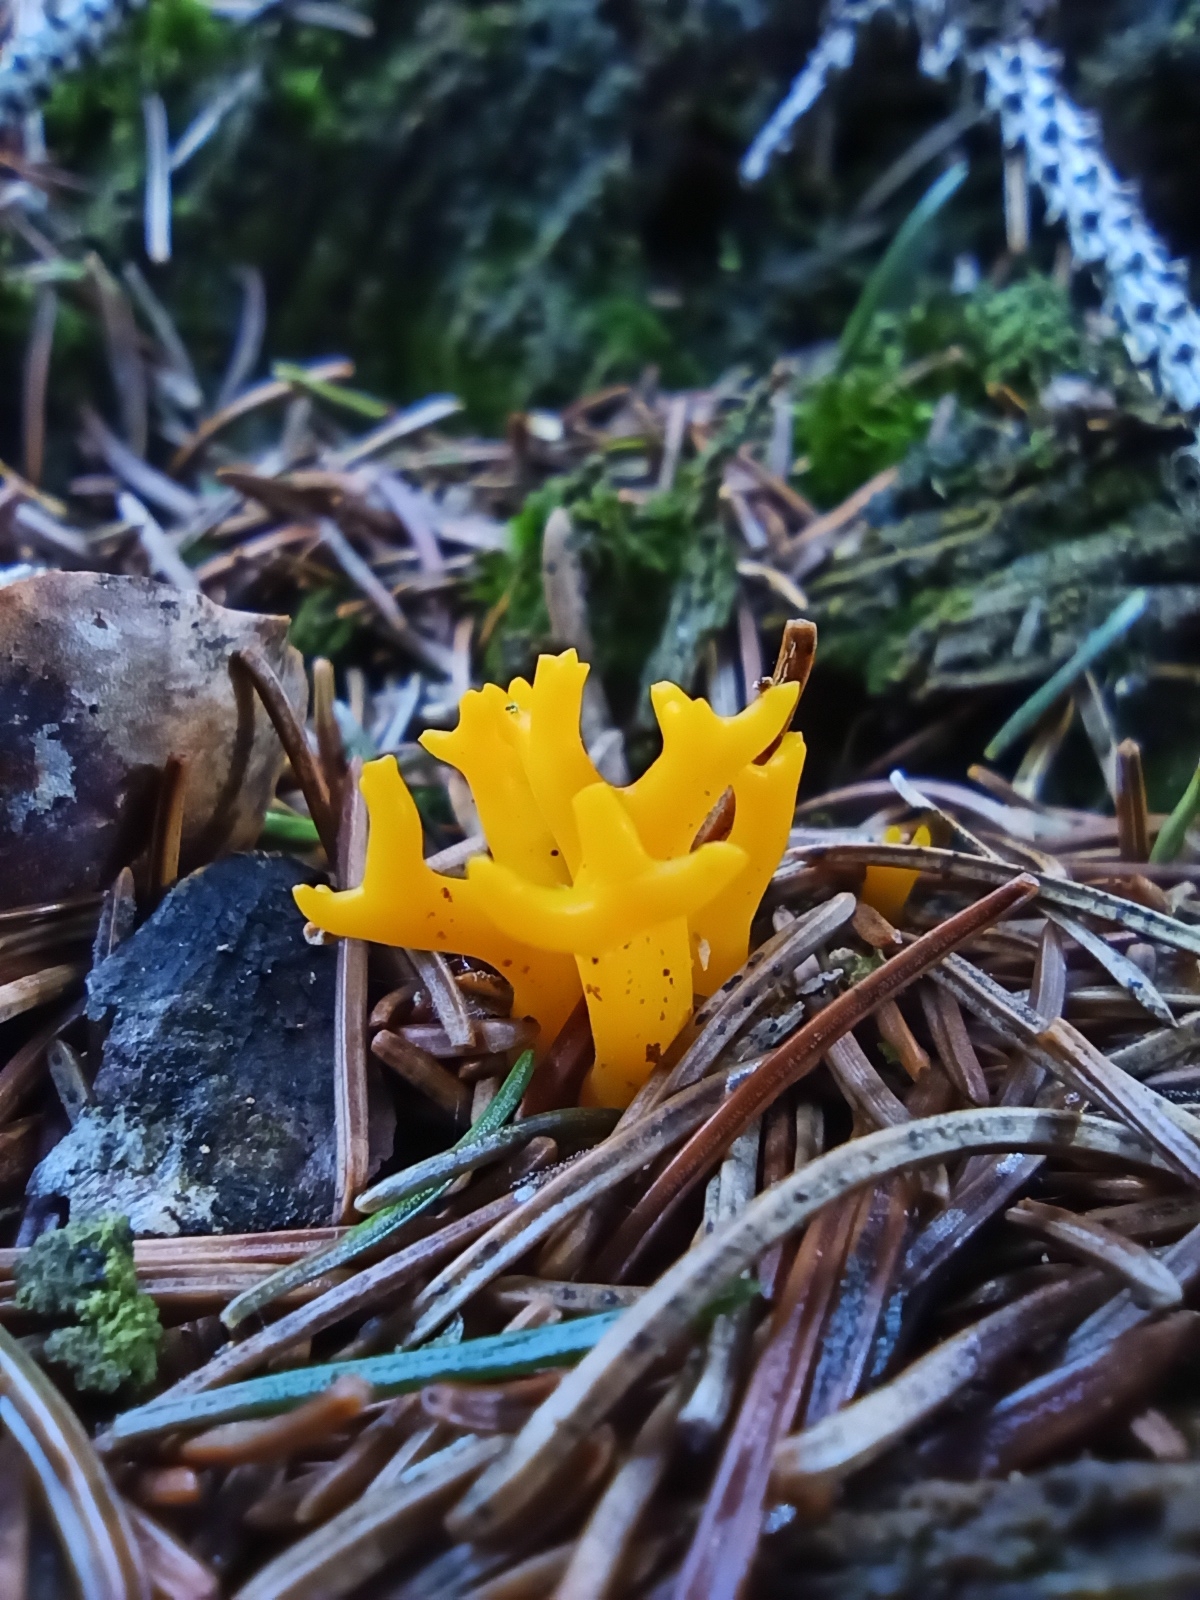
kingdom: Fungi
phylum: Basidiomycota
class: Dacrymycetes
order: Dacrymycetales
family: Dacrymycetaceae
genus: Calocera
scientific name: Calocera viscosa
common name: Yellow stagshorn
